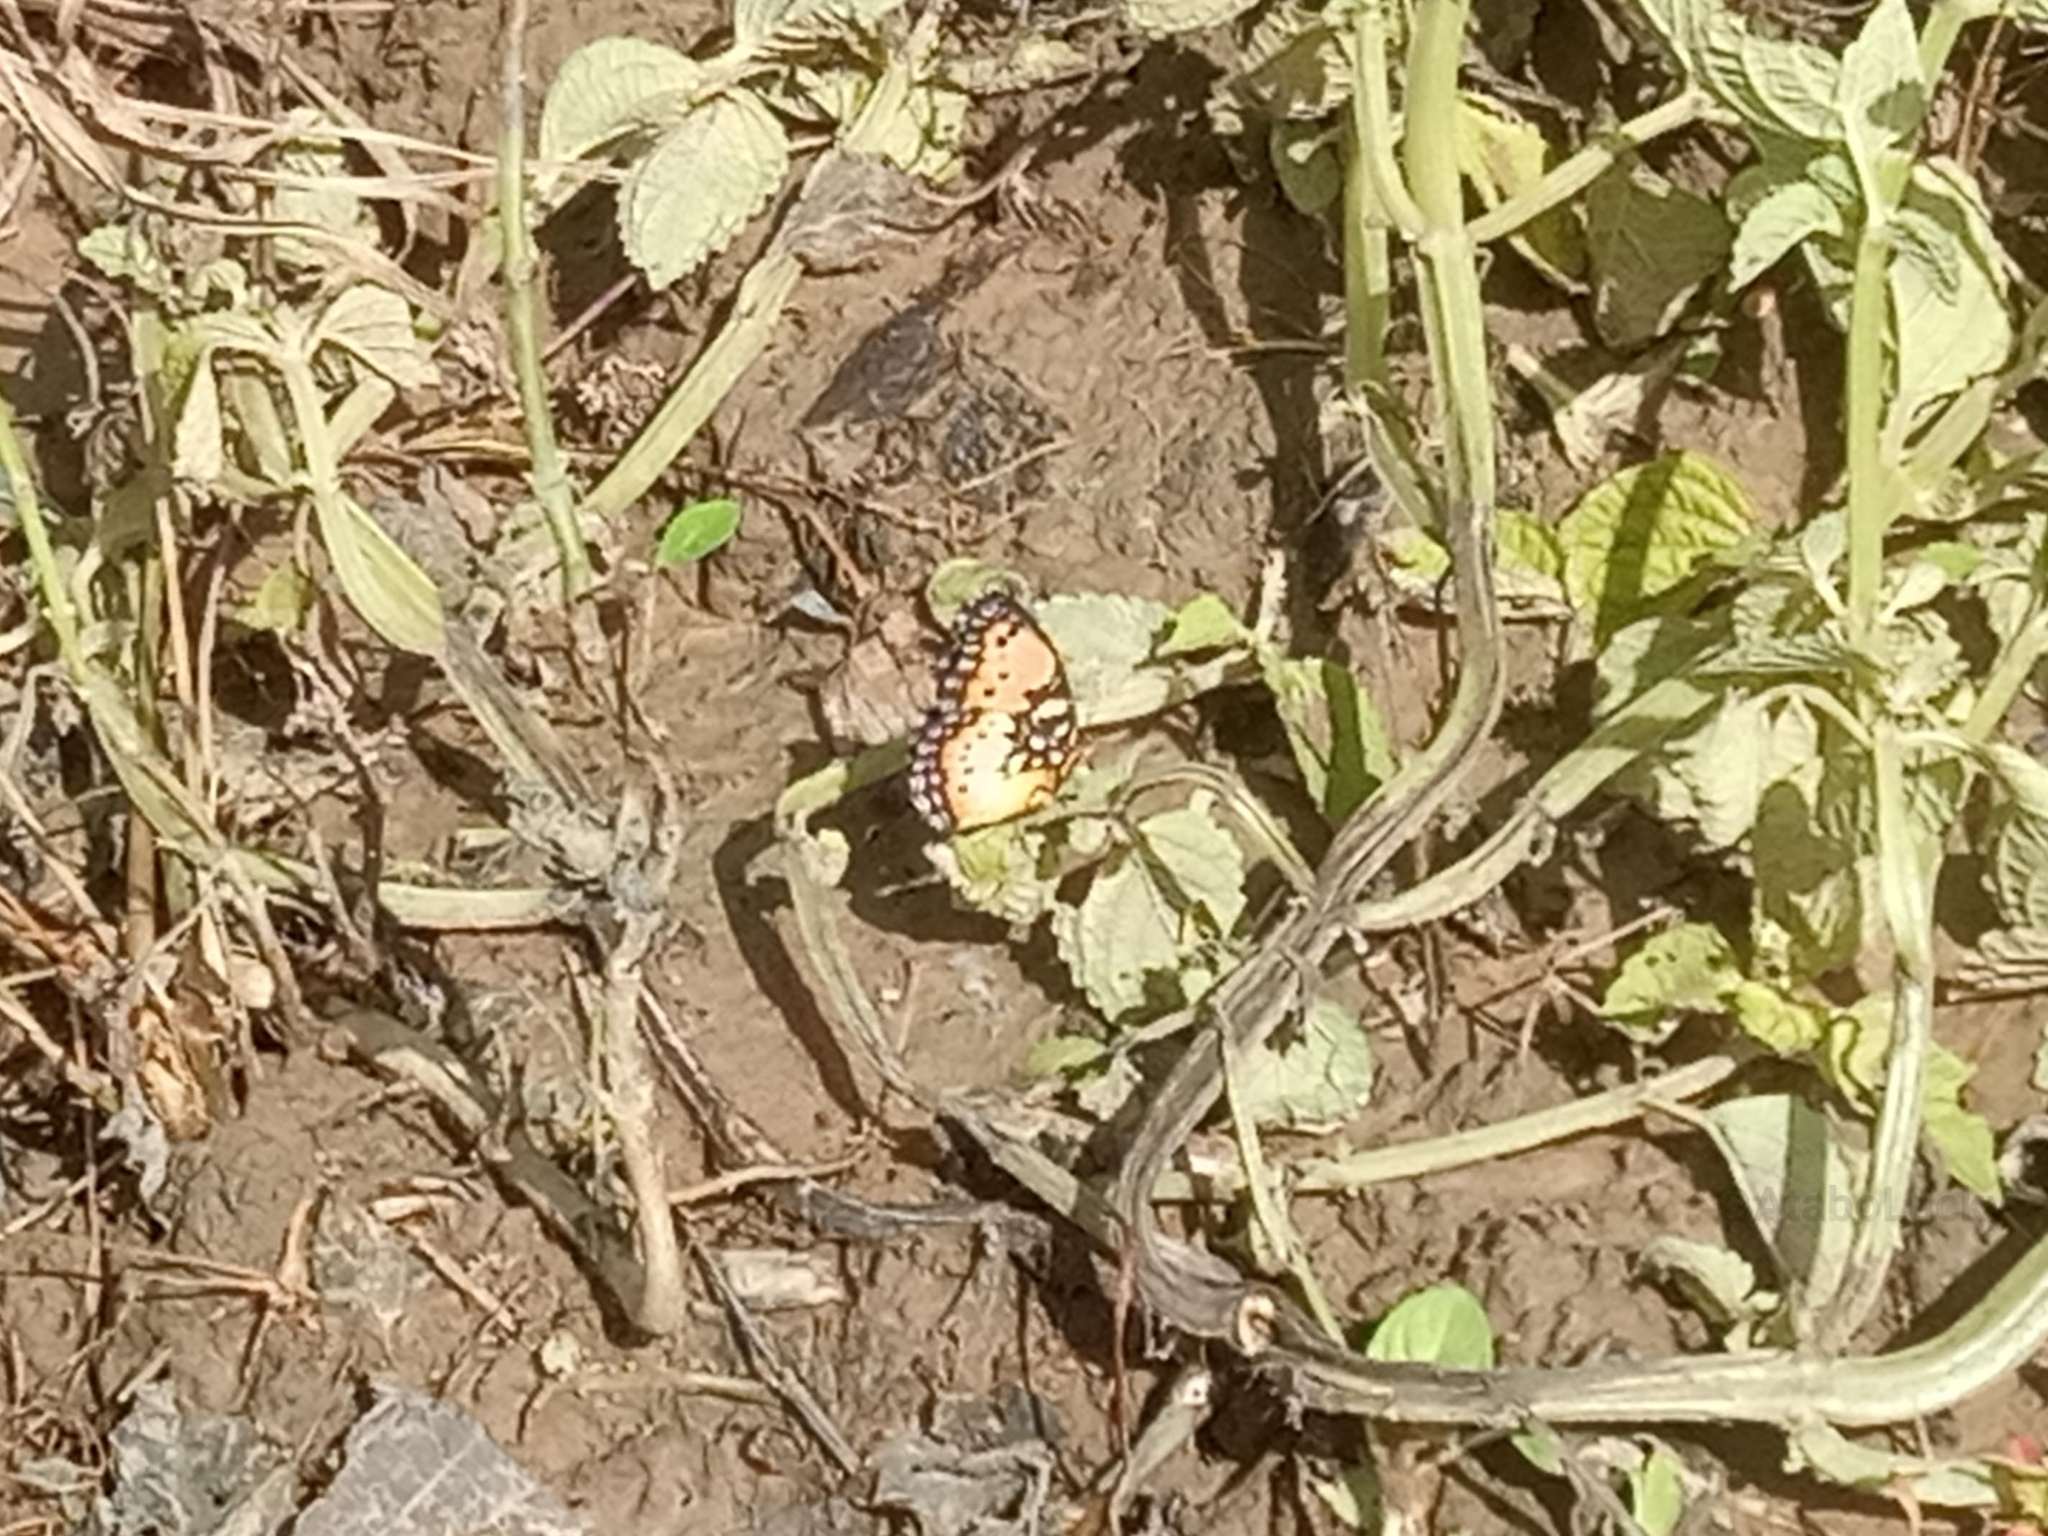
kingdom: Animalia
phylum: Arthropoda
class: Insecta
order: Lepidoptera
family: Nymphalidae
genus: Precis
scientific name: Precis octavia
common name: Gaudy commodore
